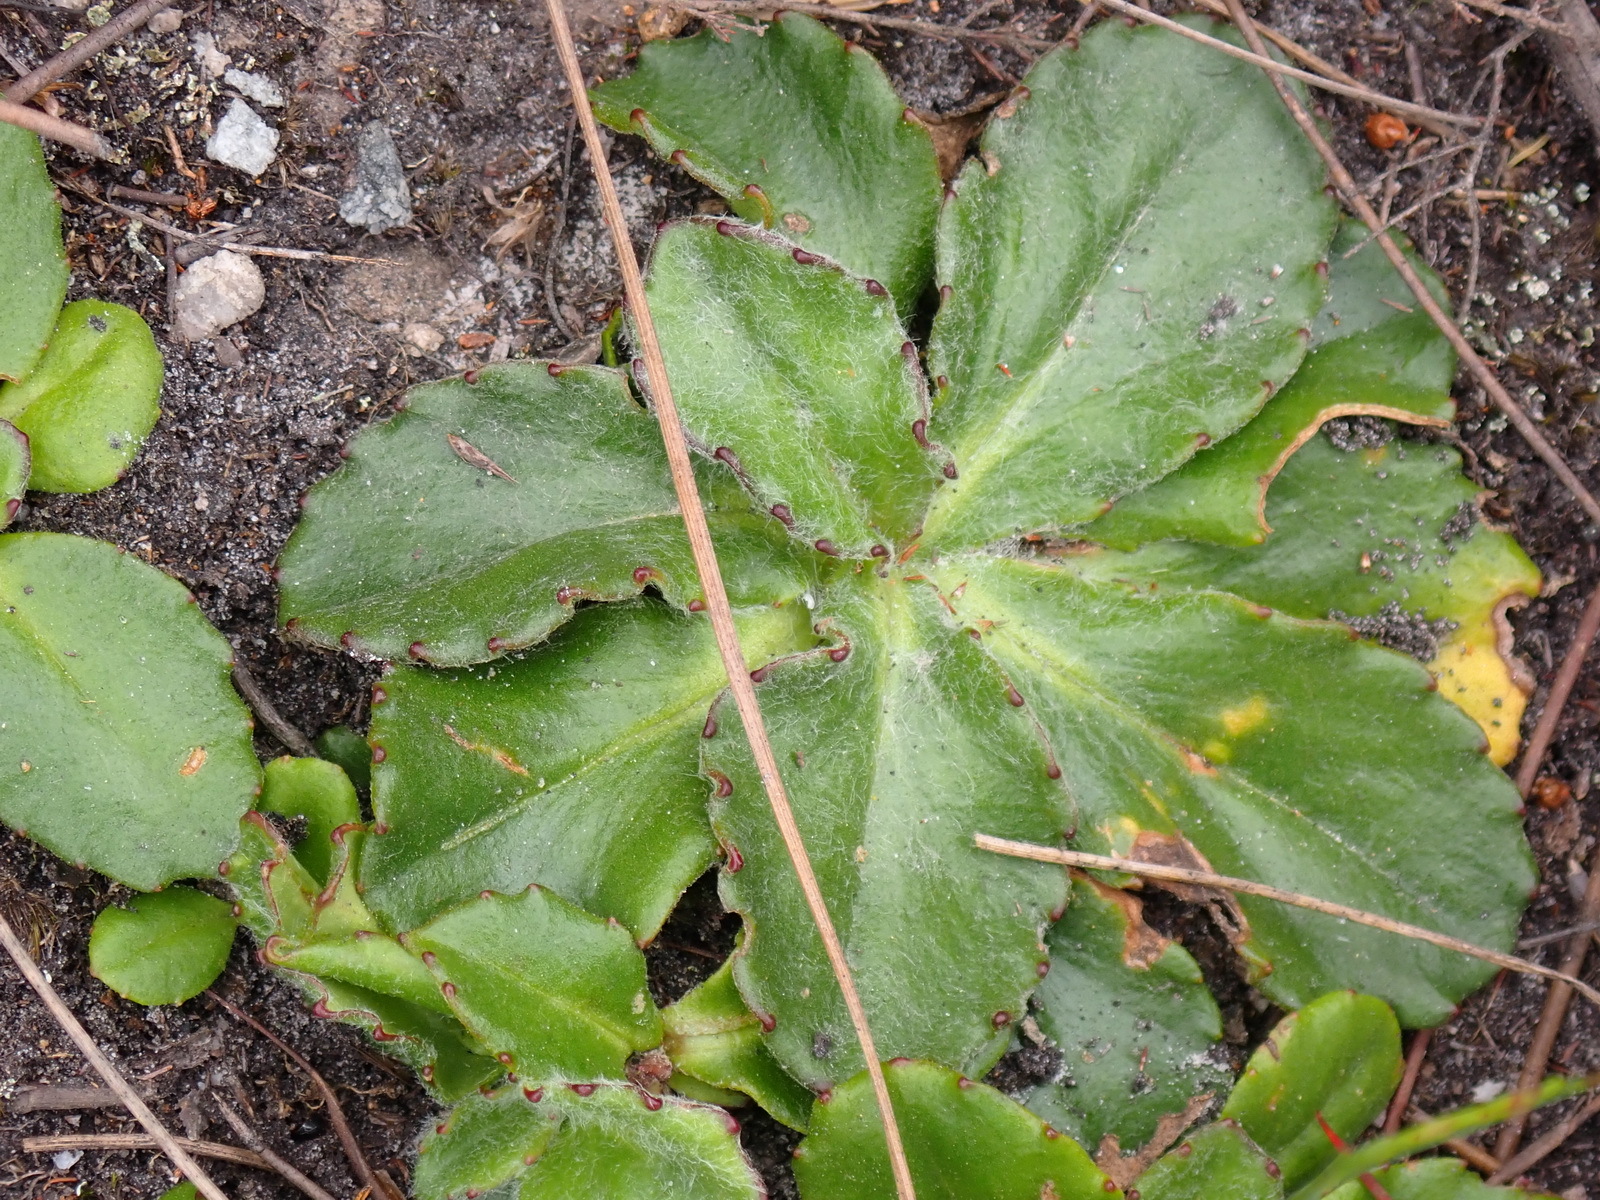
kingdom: Plantae
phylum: Tracheophyta
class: Magnoliopsida
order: Asterales
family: Asteraceae
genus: Zyrphelis
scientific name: Zyrphelis crenata
